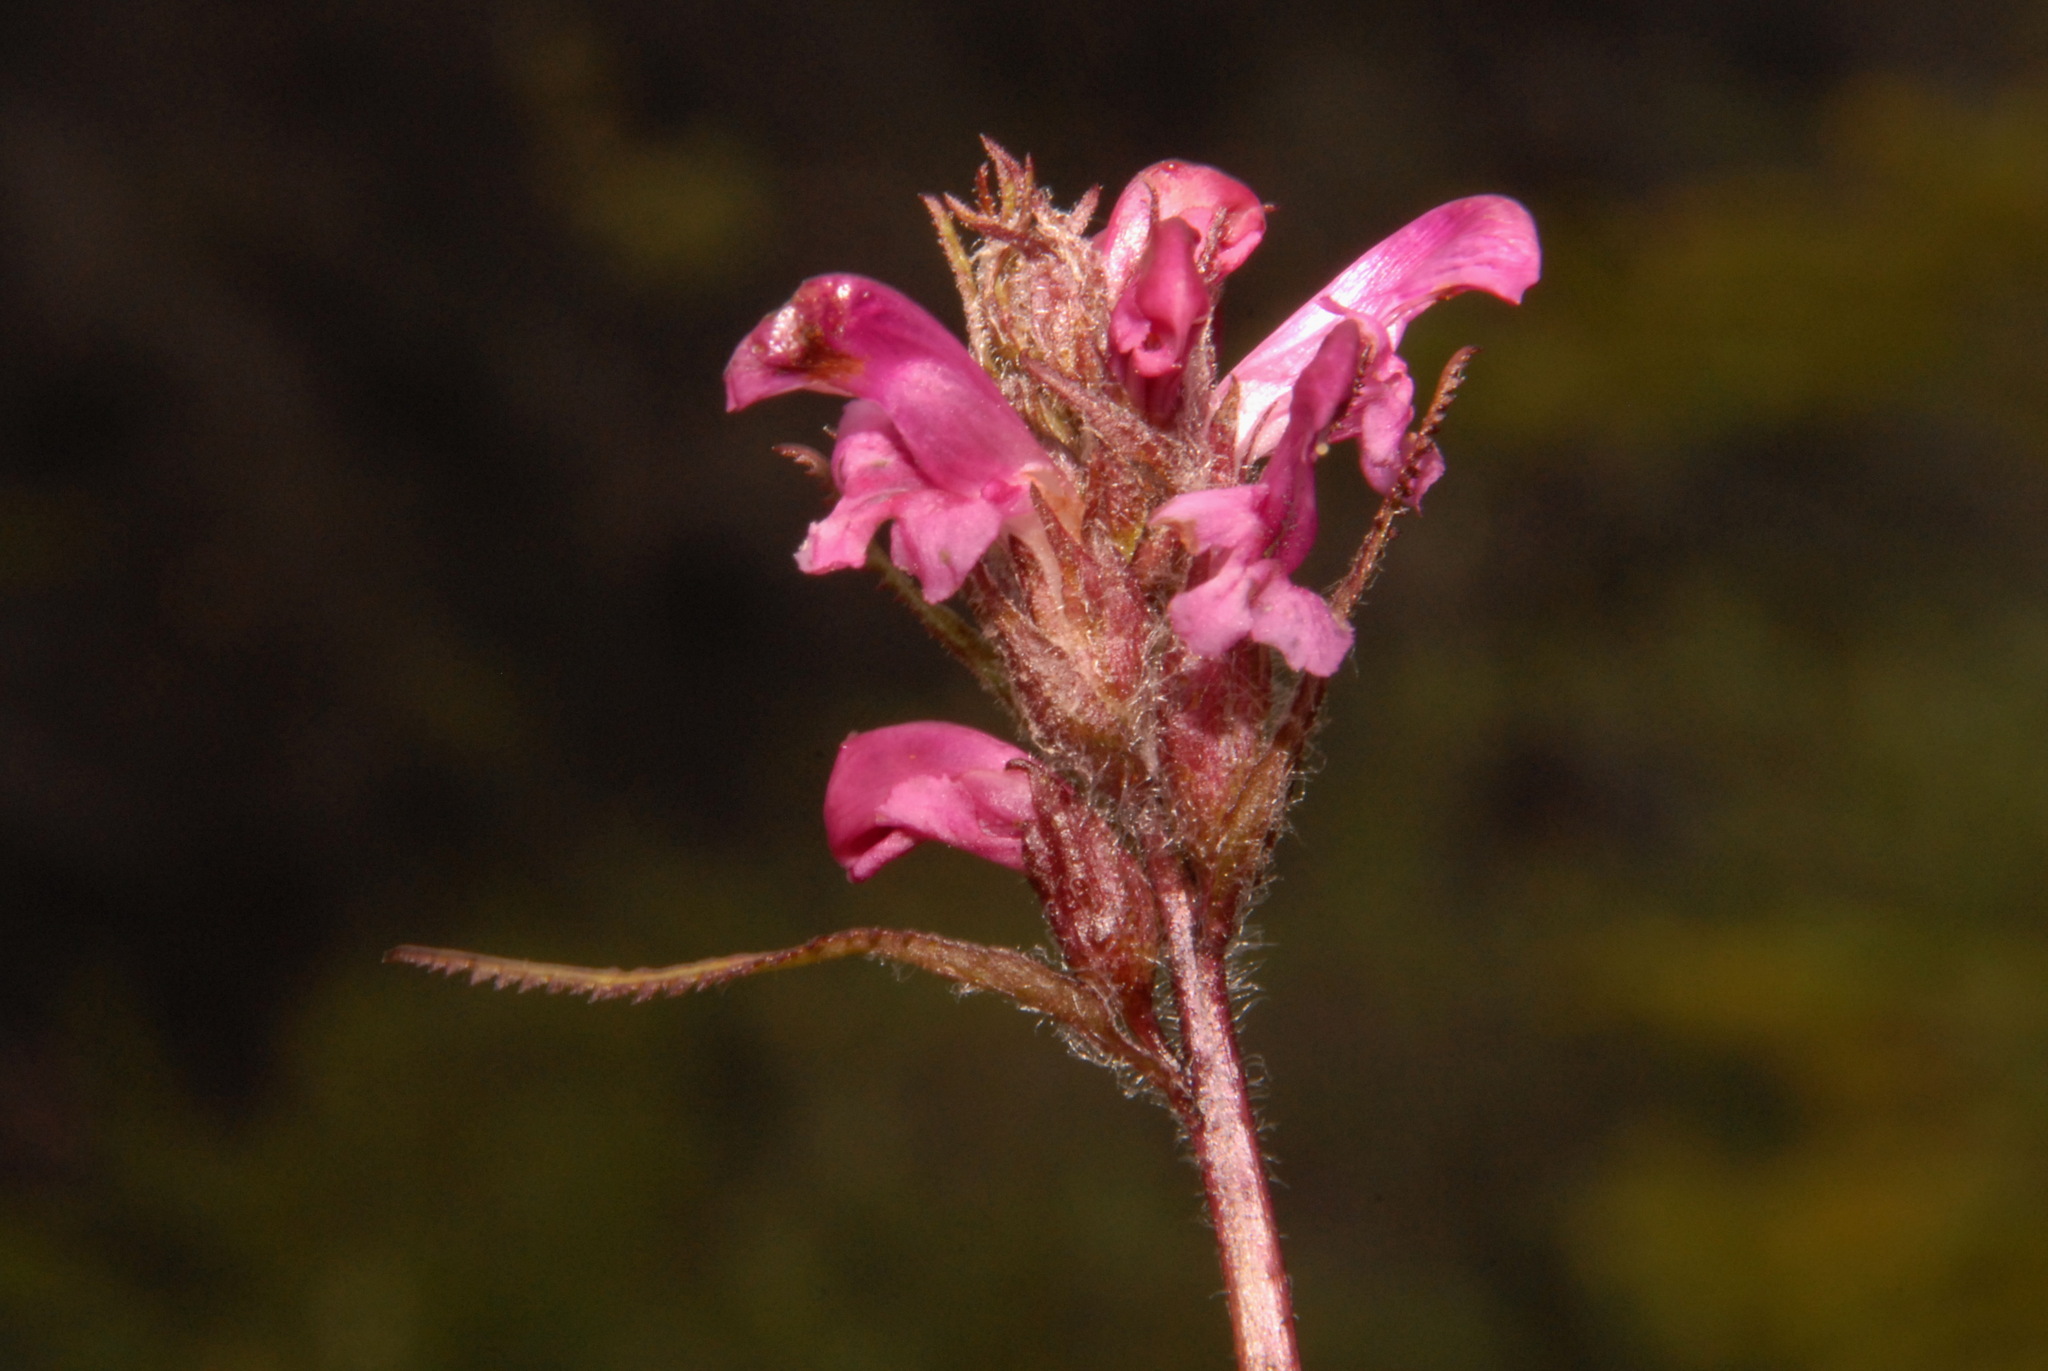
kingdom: Plantae
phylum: Tracheophyta
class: Magnoliopsida
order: Lamiales
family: Orobanchaceae
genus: Pedicularis
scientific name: Pedicularis novaiae-zemliae
